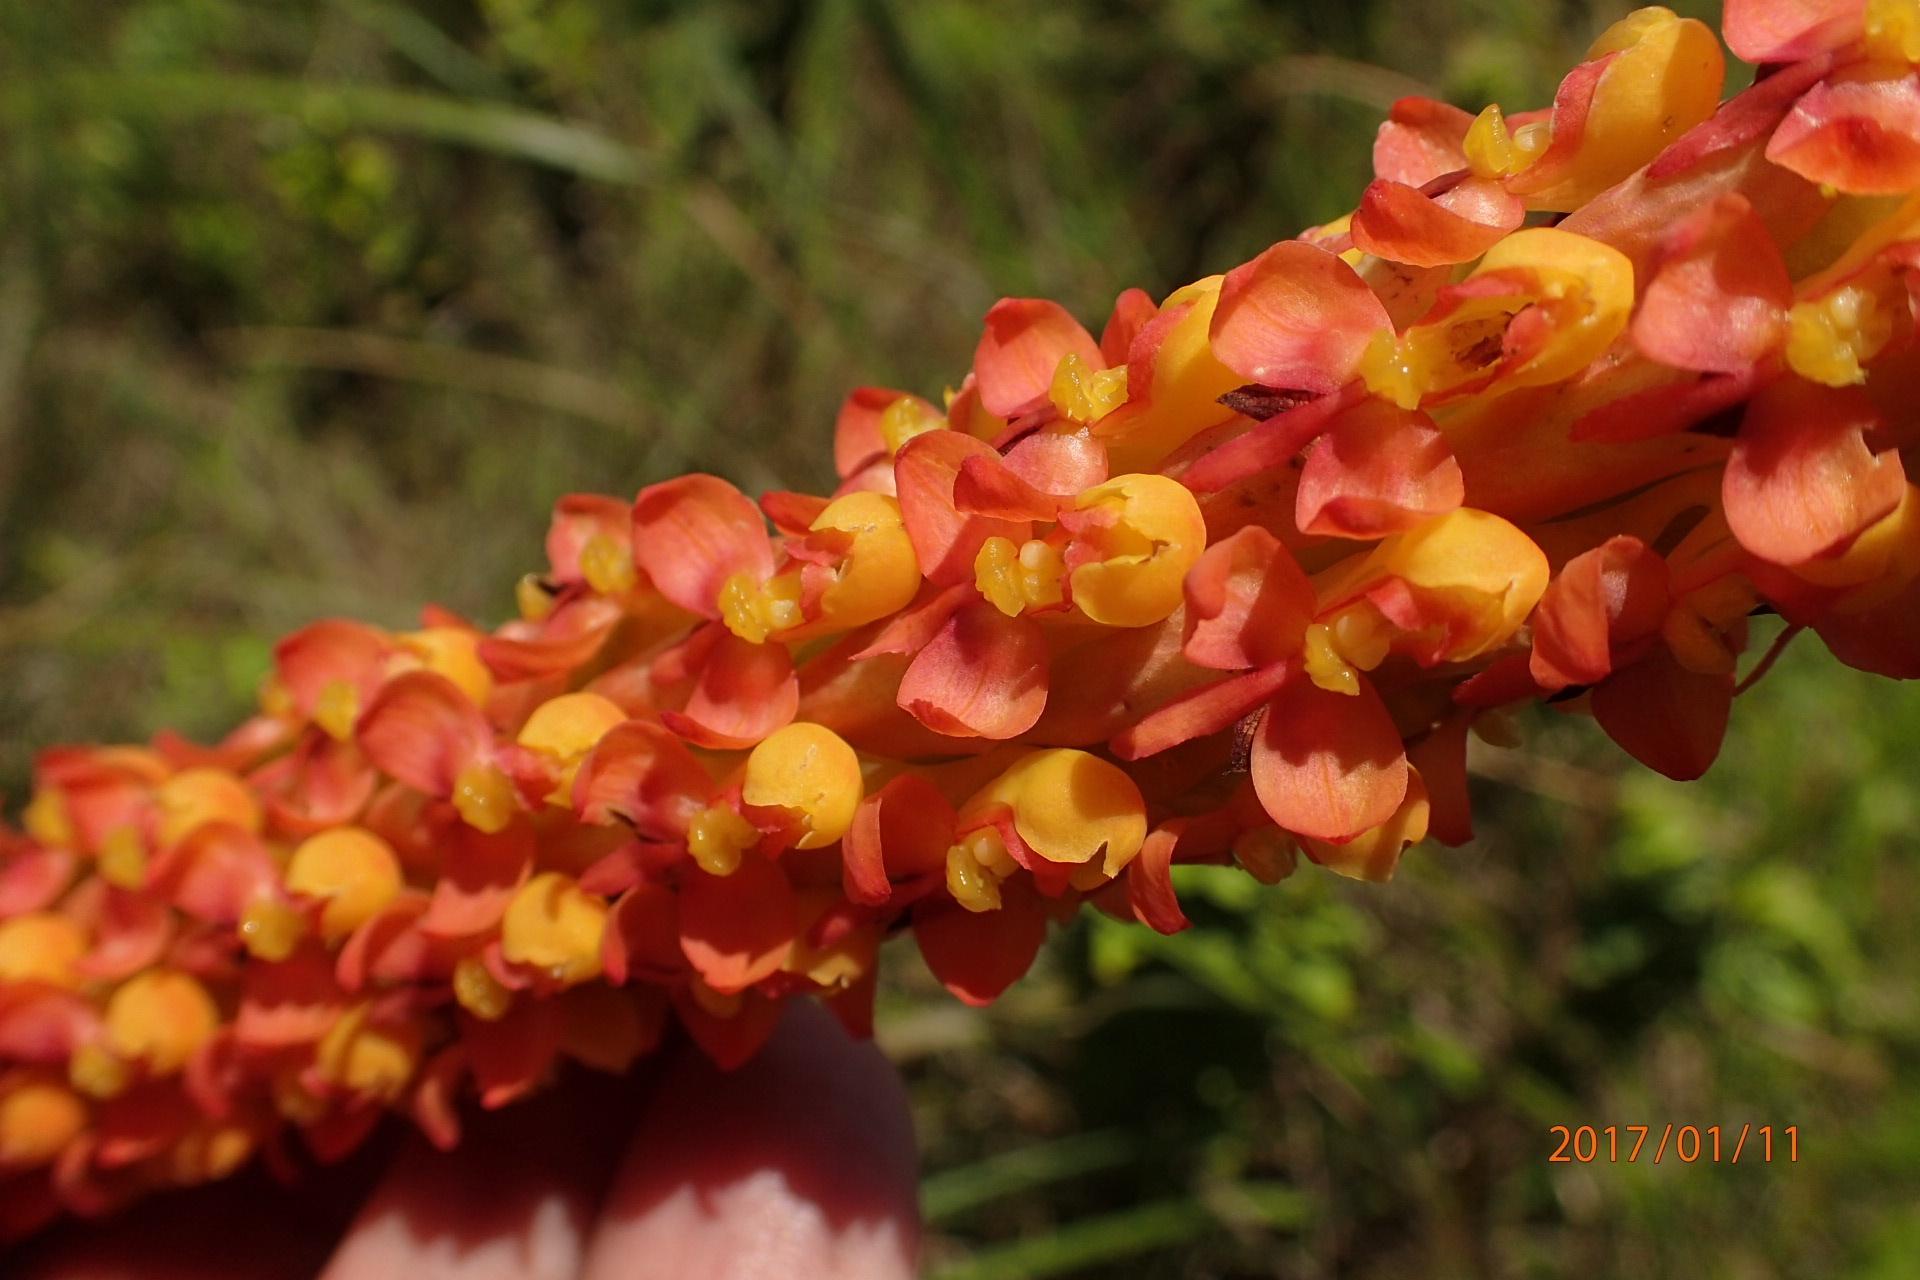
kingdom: Plantae
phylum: Tracheophyta
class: Liliopsida
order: Asparagales
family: Orchidaceae
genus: Disa
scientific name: Disa chrysostachya
